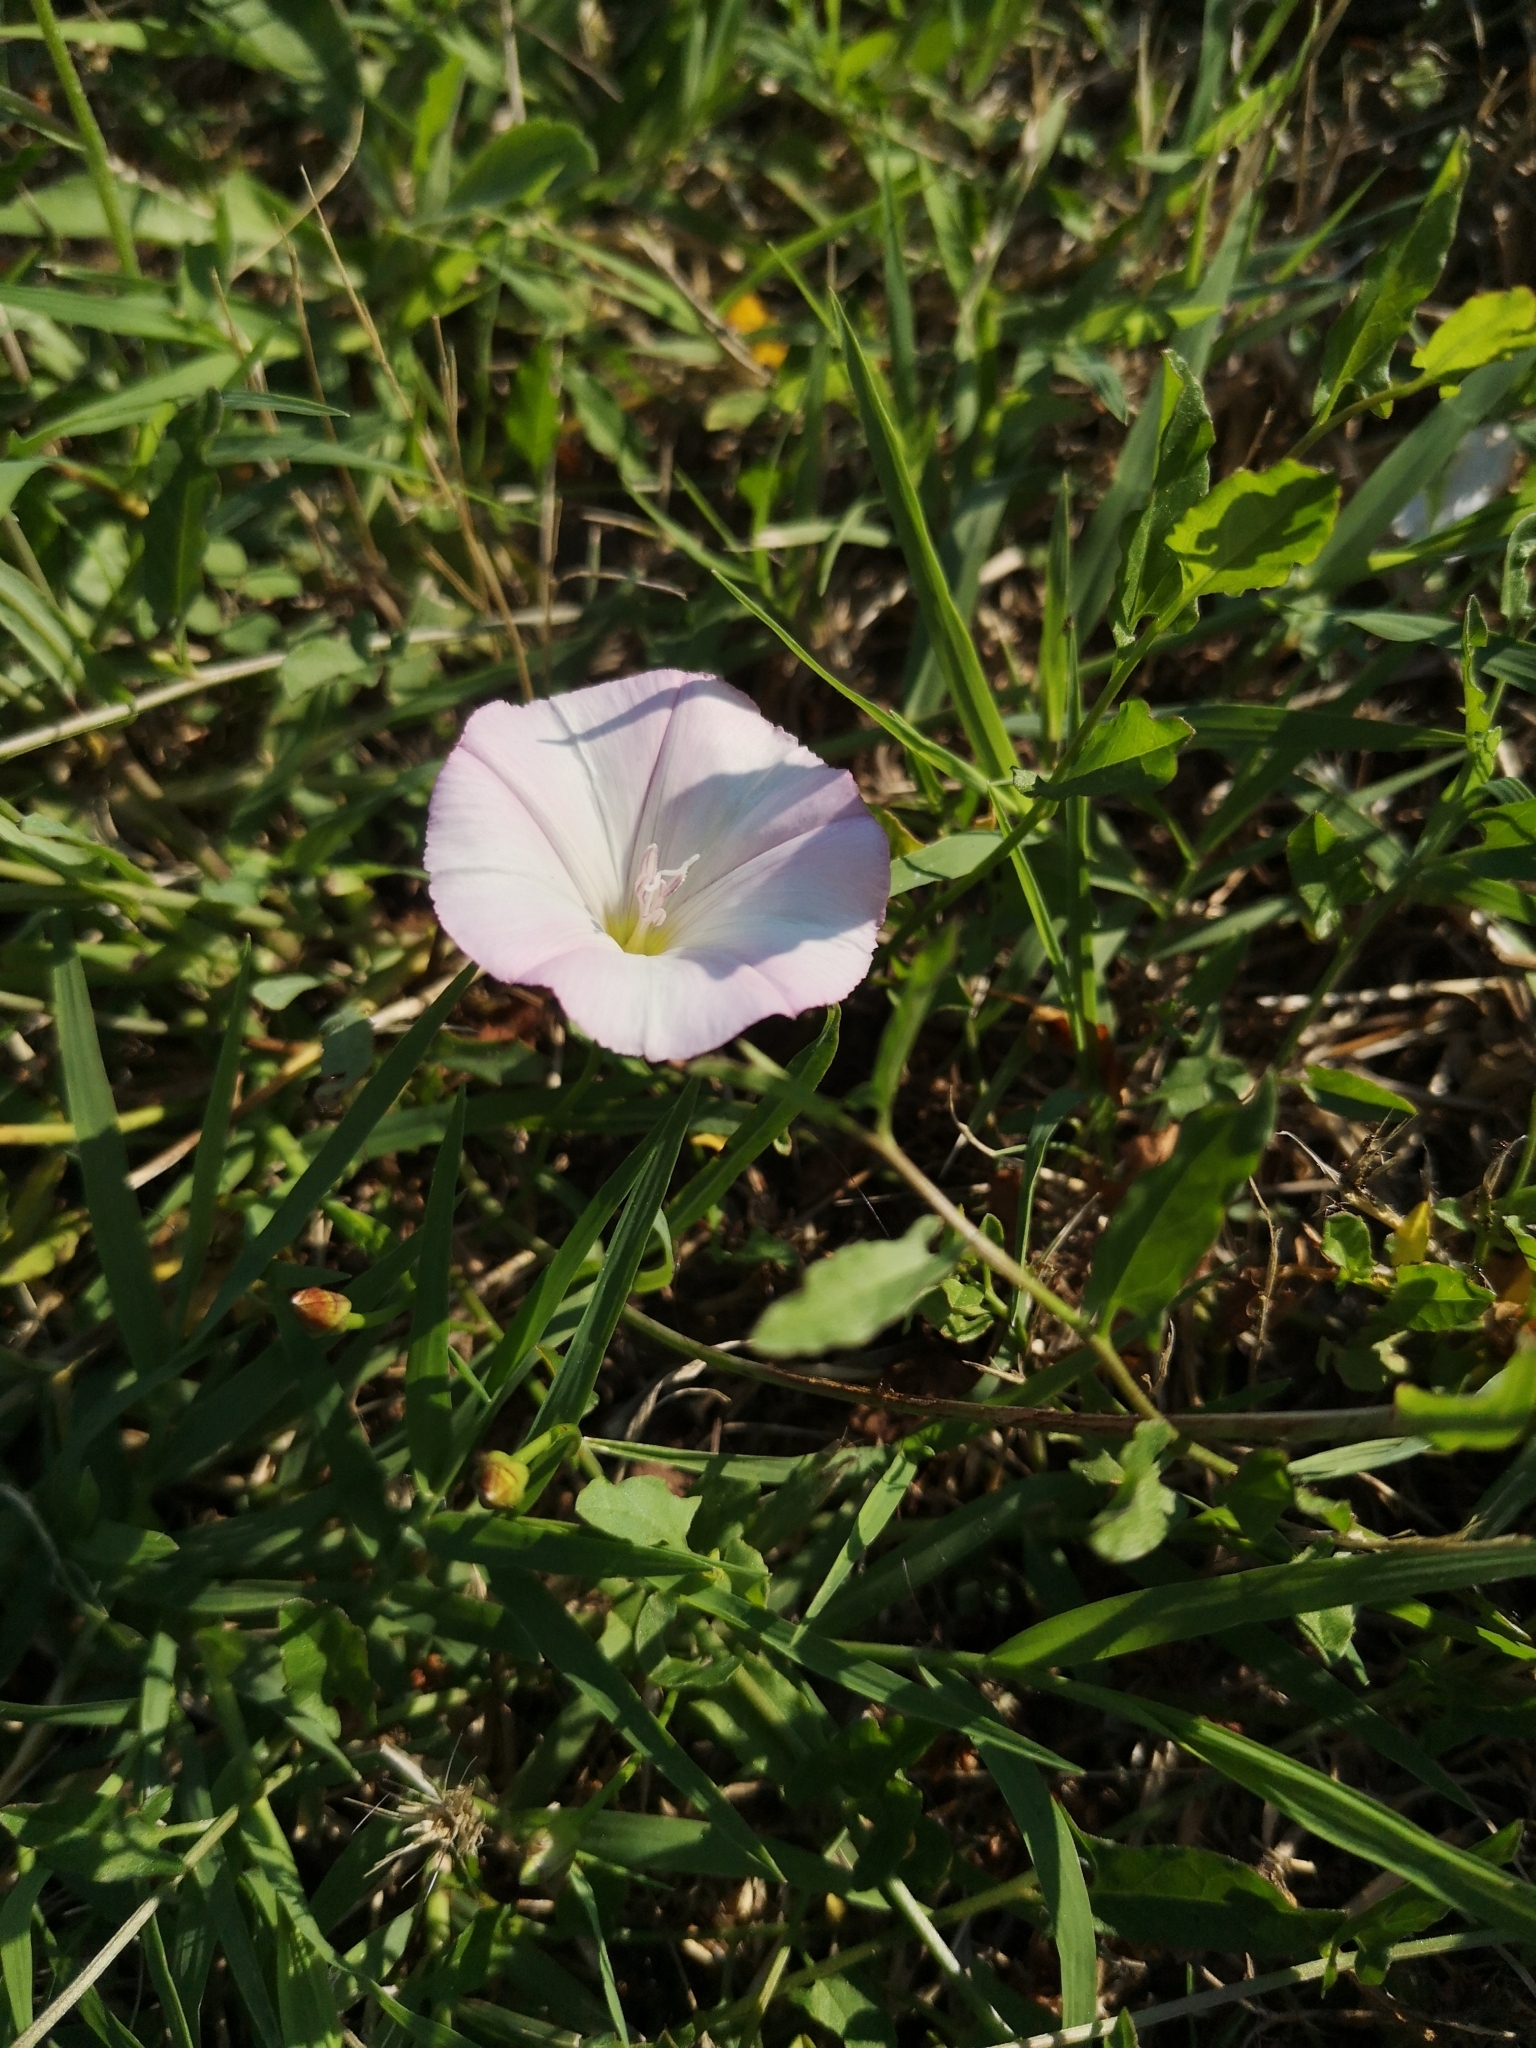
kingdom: Plantae
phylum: Tracheophyta
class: Magnoliopsida
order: Solanales
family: Convolvulaceae
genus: Convolvulus
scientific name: Convolvulus arvensis
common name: Field bindweed
